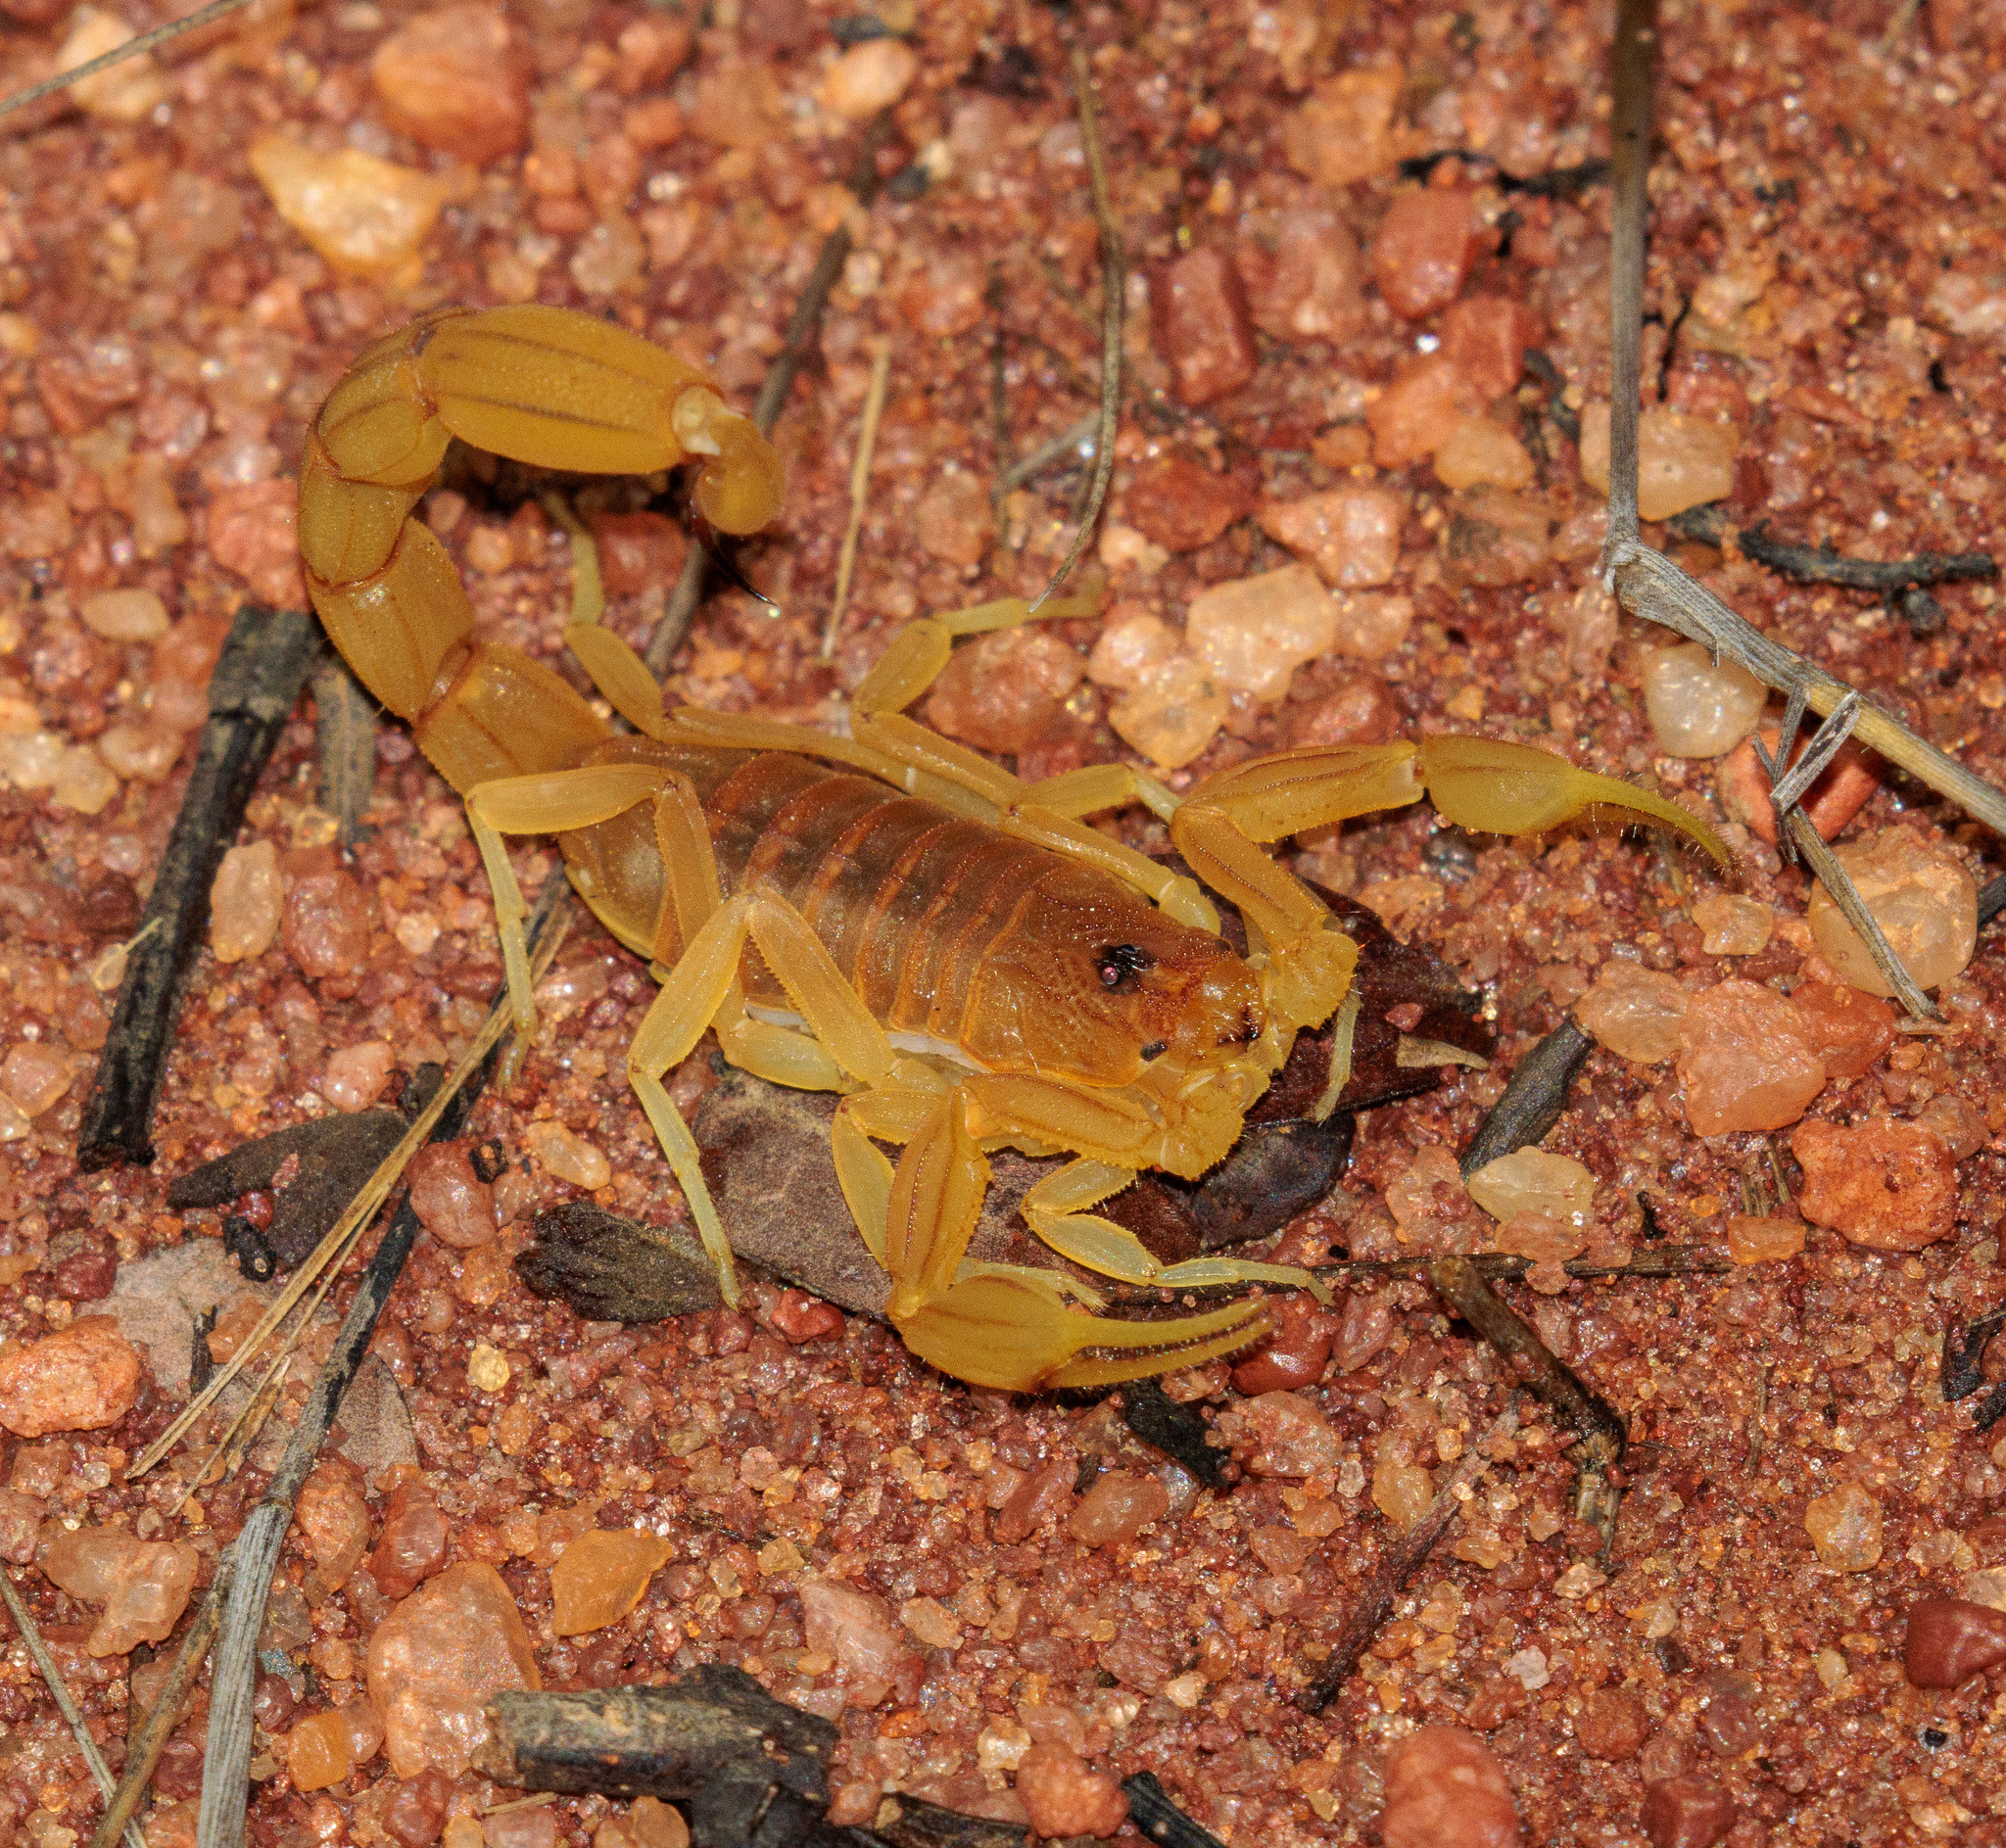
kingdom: Animalia
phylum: Arthropoda
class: Arachnida
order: Scorpiones
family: Buthidae
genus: Jaguajir
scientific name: Jaguajir rochae
